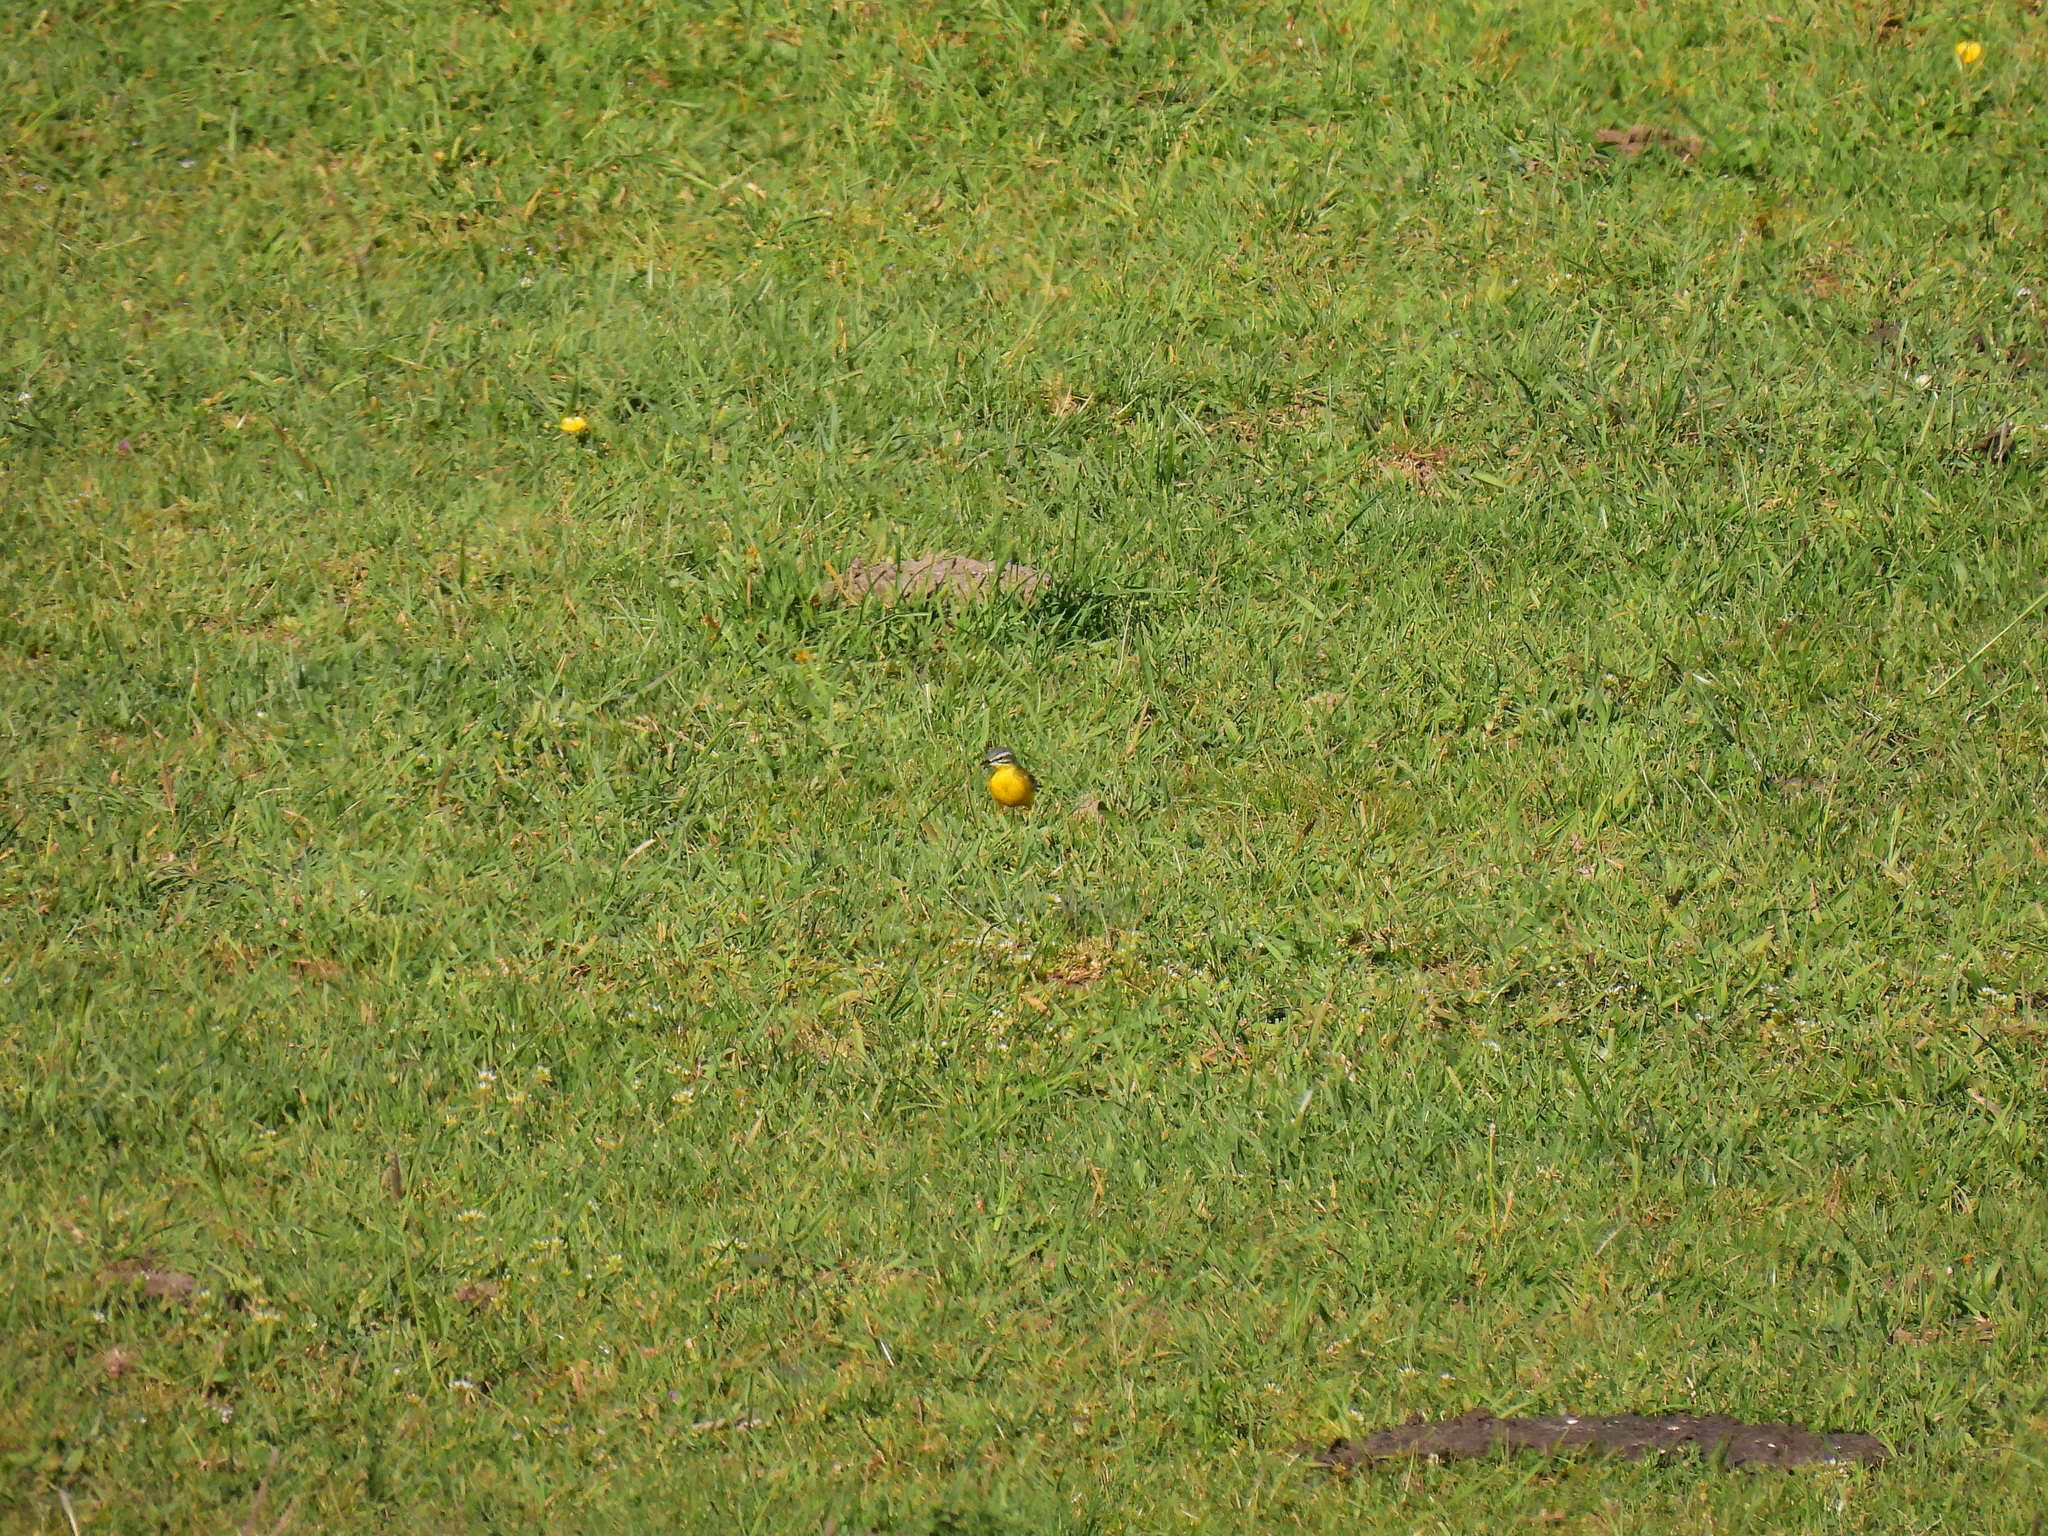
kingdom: Animalia
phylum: Chordata
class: Aves
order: Passeriformes
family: Motacillidae
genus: Motacilla
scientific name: Motacilla flava
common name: Western yellow wagtail
